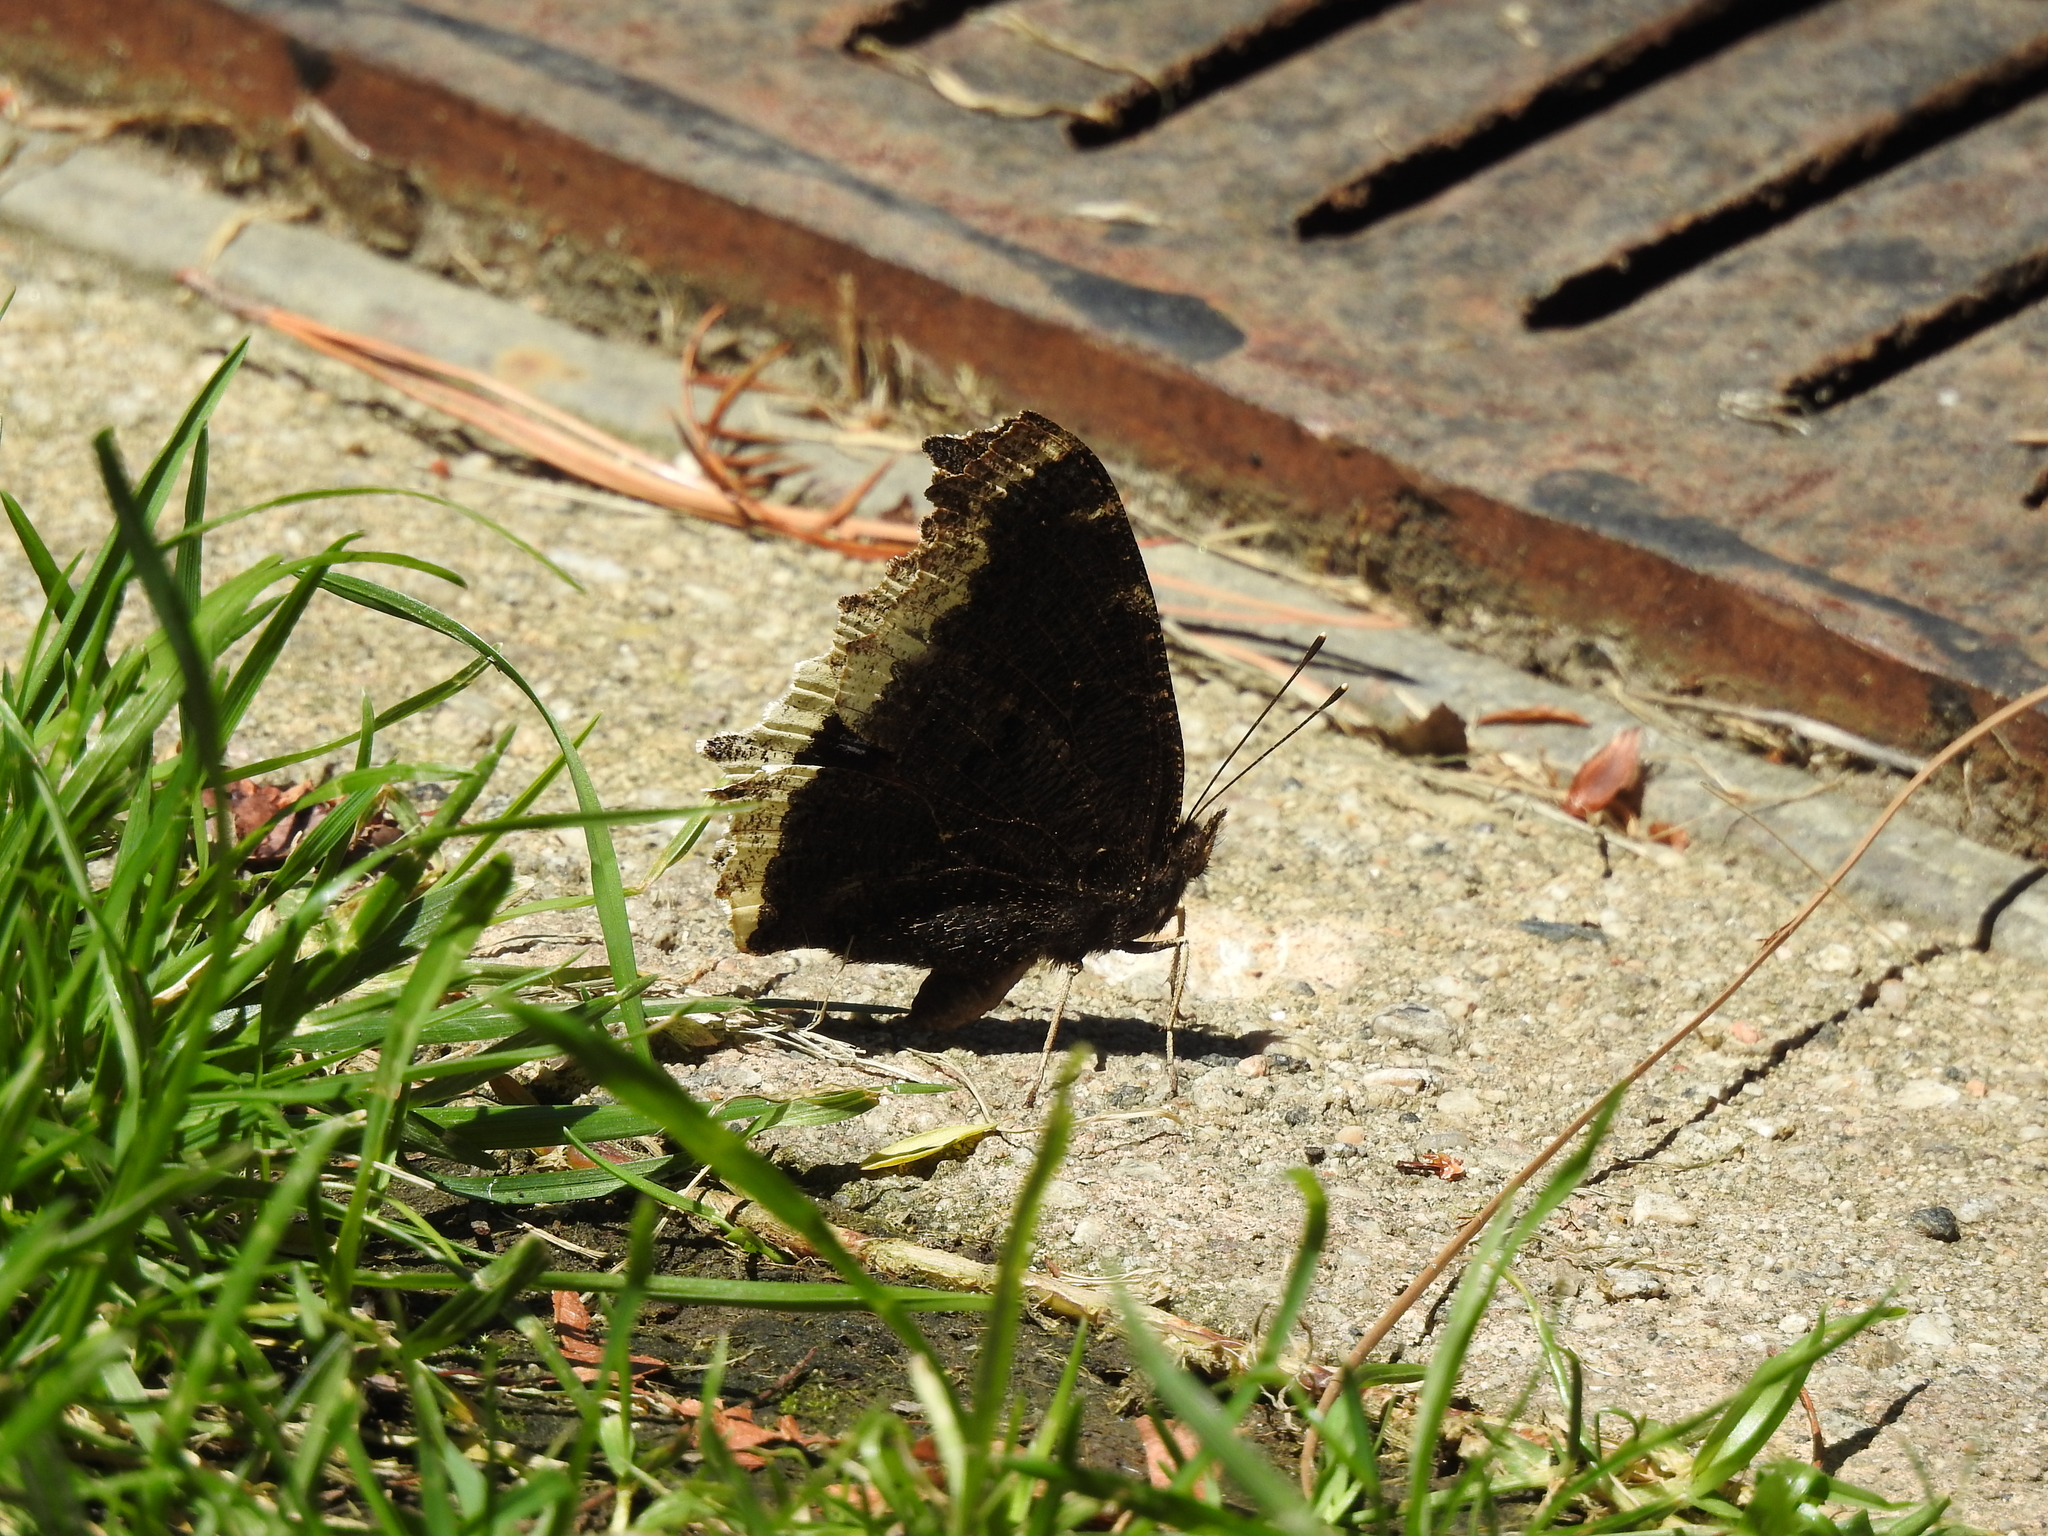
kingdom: Animalia
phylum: Arthropoda
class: Insecta
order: Lepidoptera
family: Nymphalidae
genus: Nymphalis
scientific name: Nymphalis antiopa
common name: Camberwell beauty
